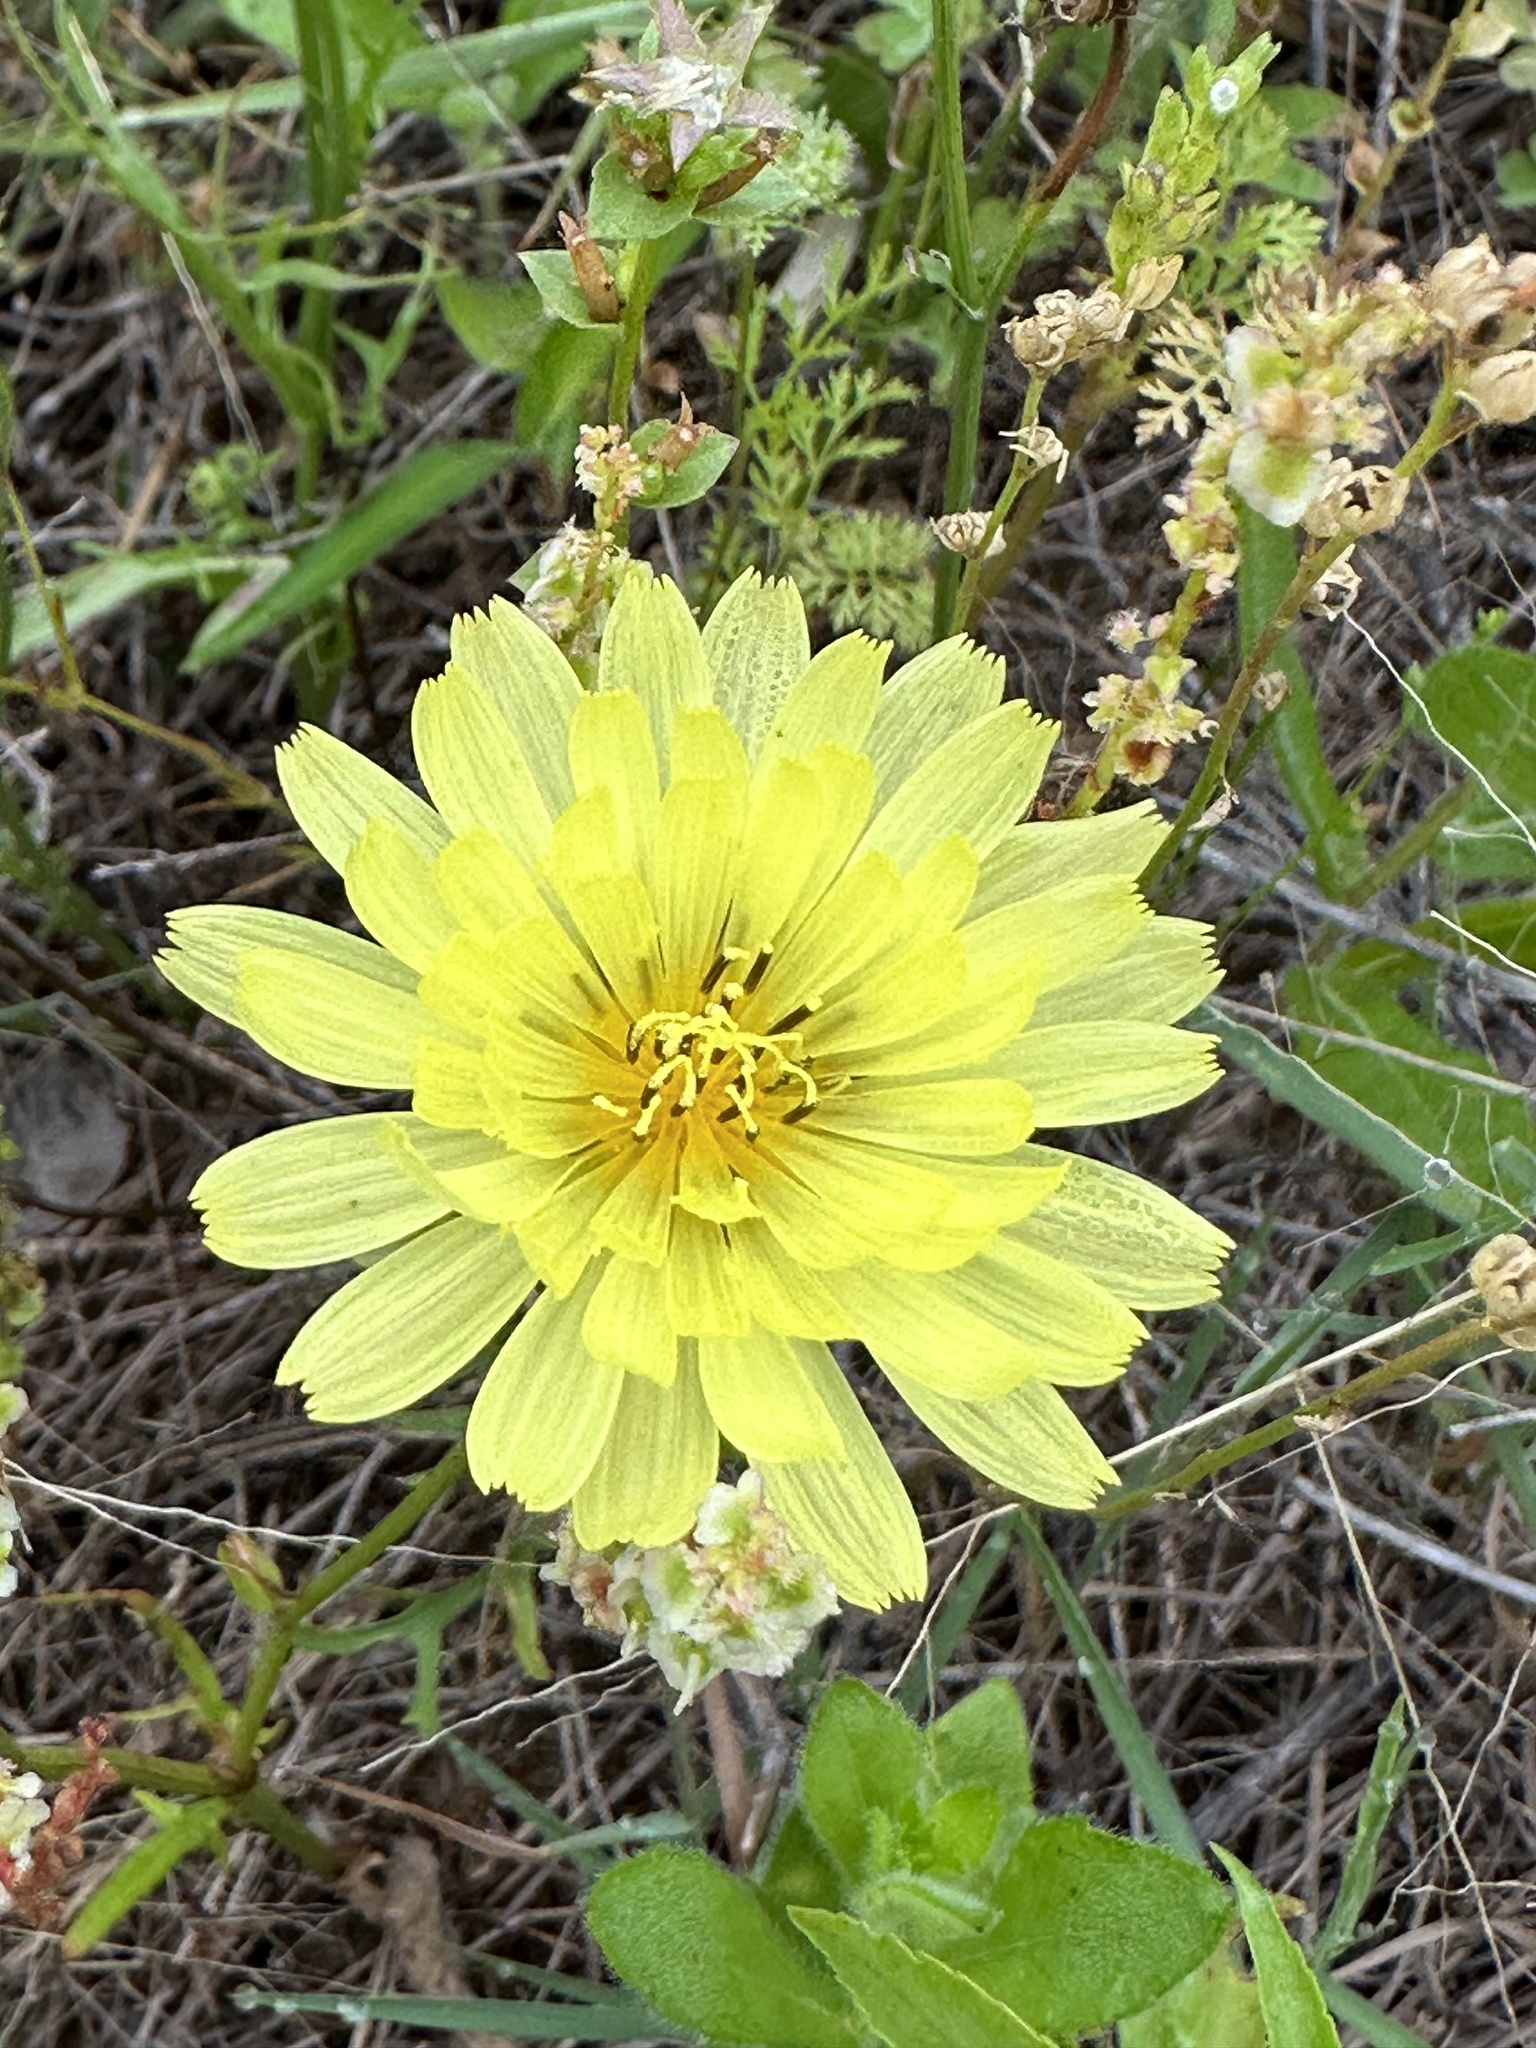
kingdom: Plantae
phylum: Tracheophyta
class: Magnoliopsida
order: Asterales
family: Asteraceae
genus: Pyrrhopappus
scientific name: Pyrrhopappus pauciflorus
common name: Texas false dandelion
